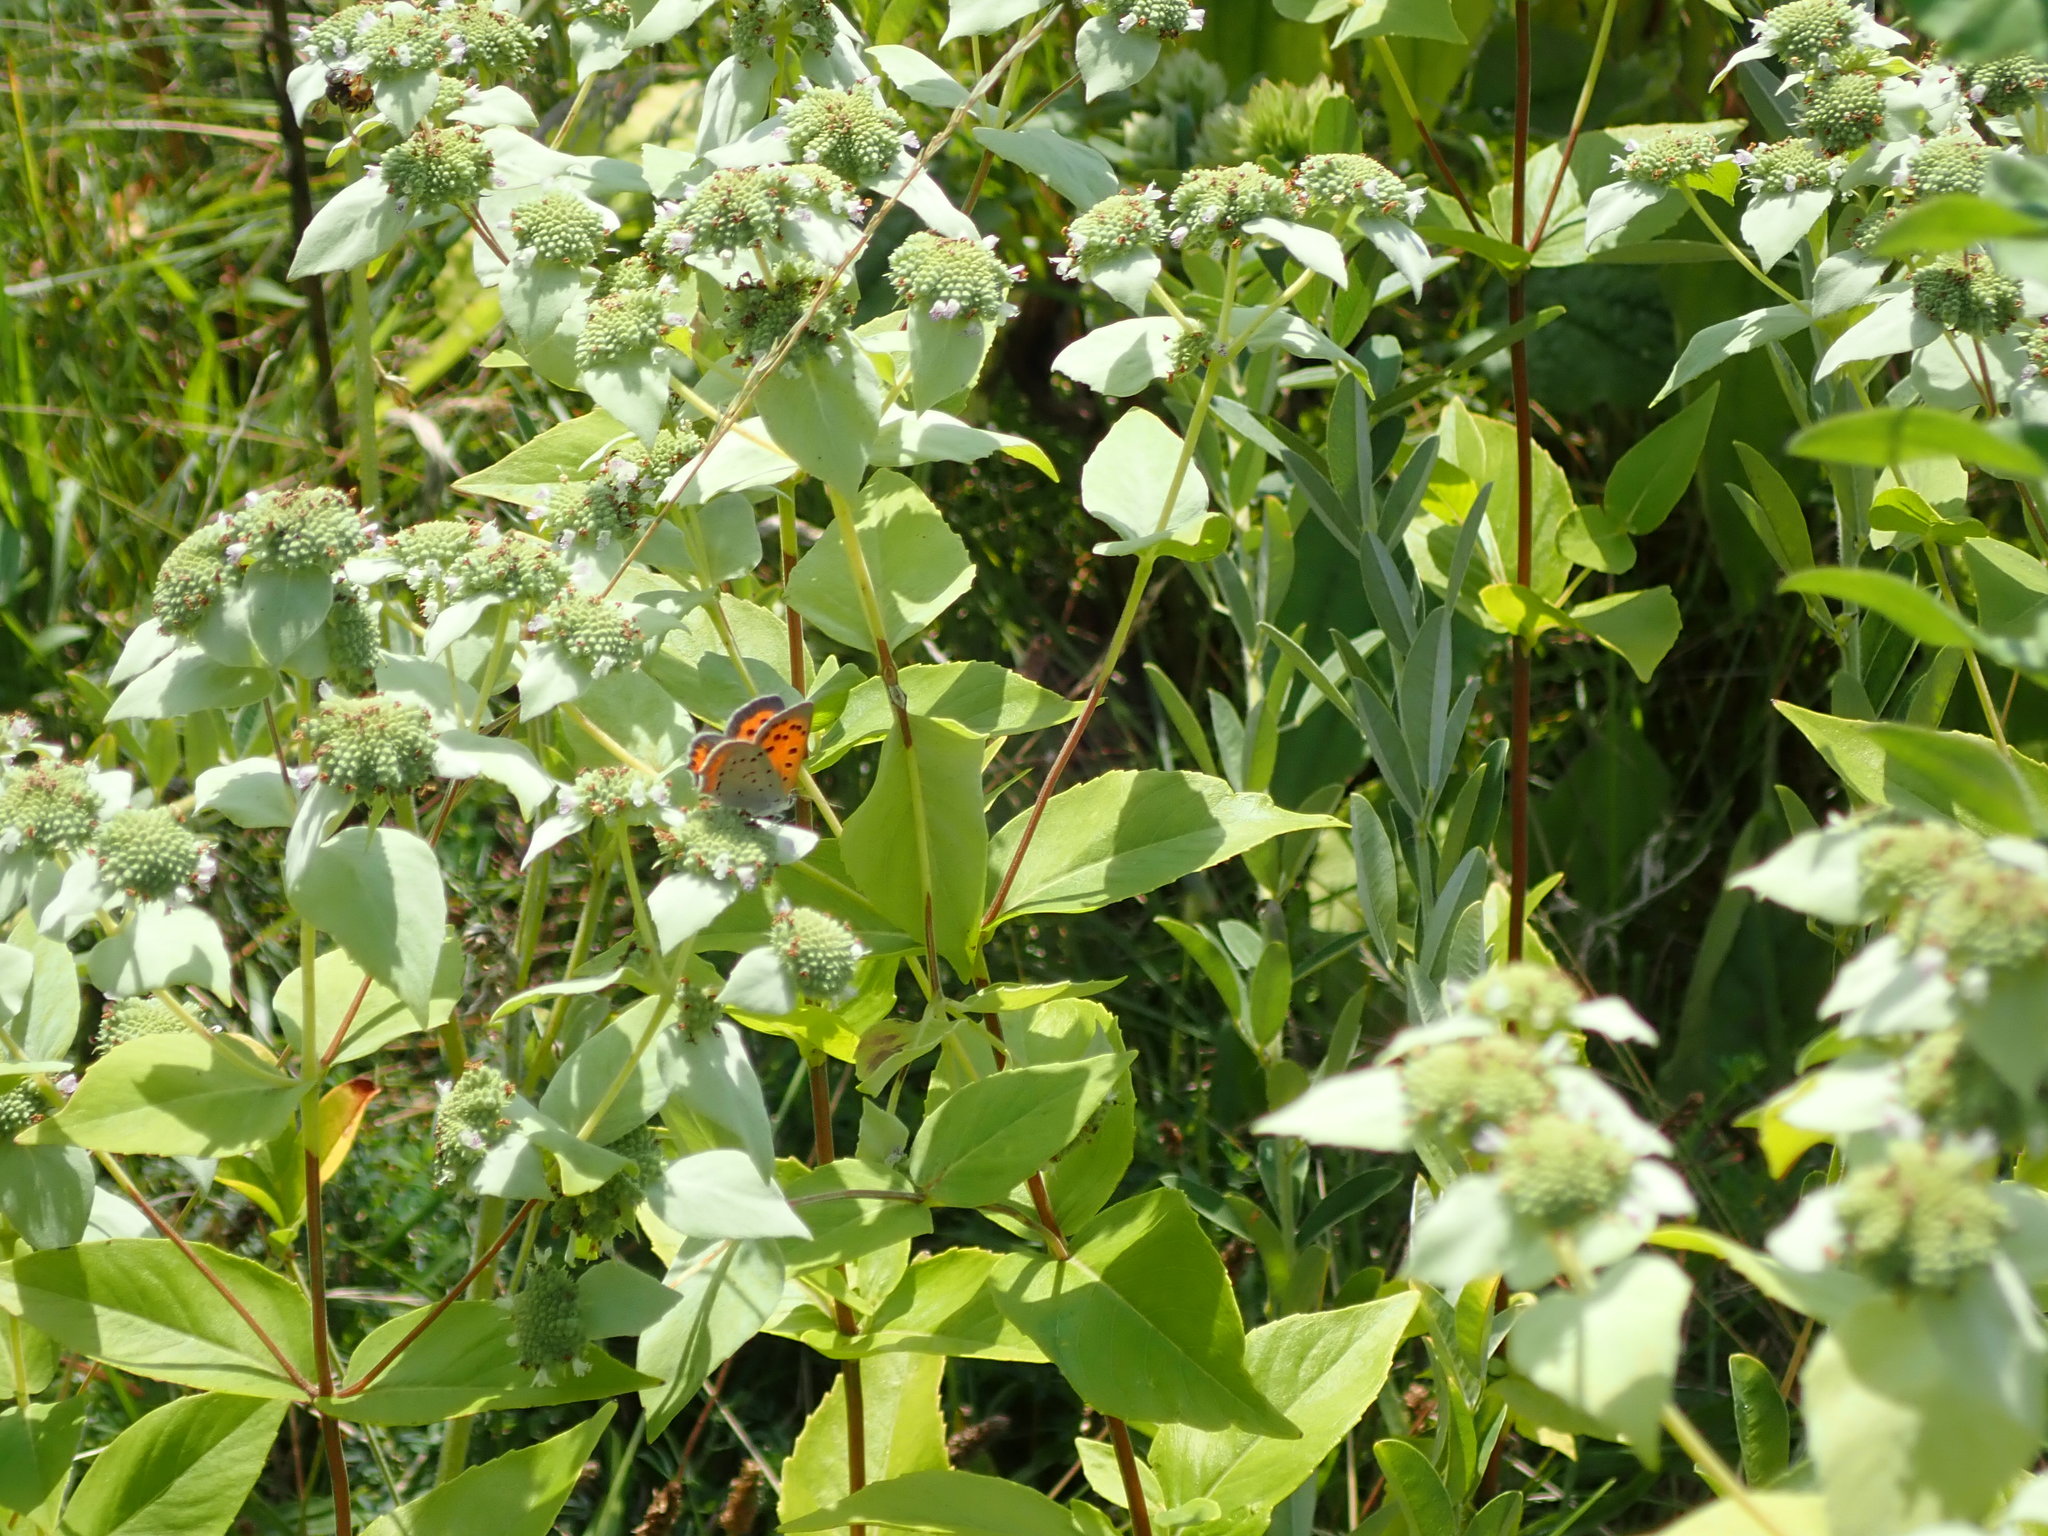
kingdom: Animalia
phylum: Arthropoda
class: Insecta
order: Lepidoptera
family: Lycaenidae
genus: Lycaena
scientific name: Lycaena hypophlaeas
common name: American copper
